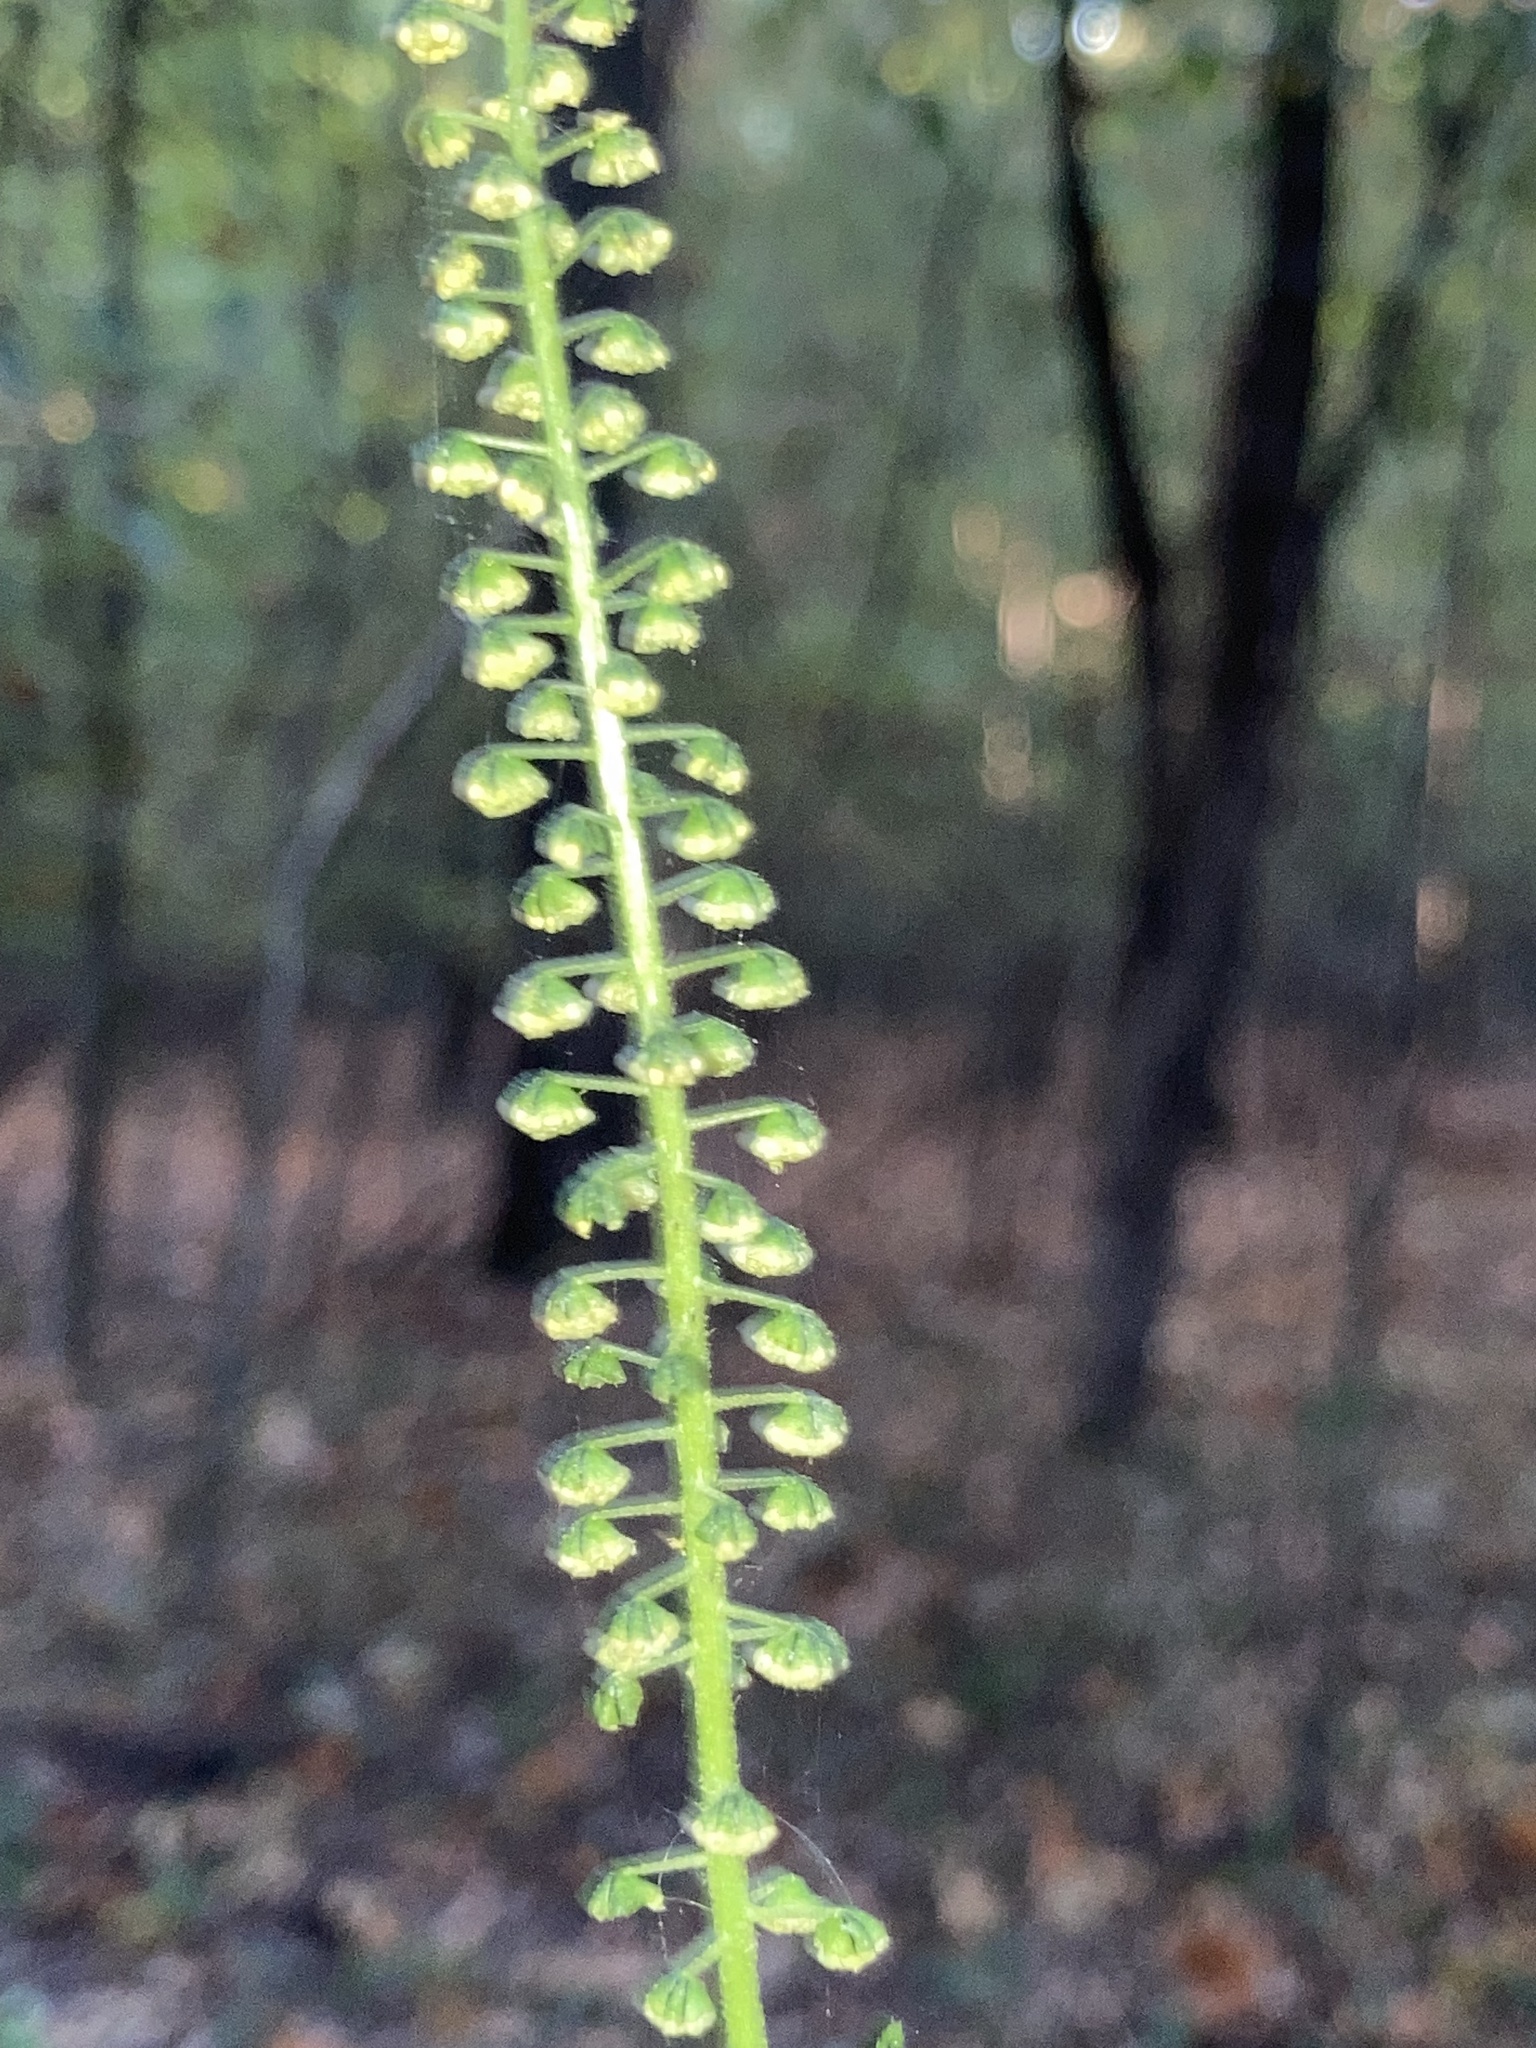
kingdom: Plantae
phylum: Tracheophyta
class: Magnoliopsida
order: Asterales
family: Asteraceae
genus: Ambrosia
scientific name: Ambrosia trifida
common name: Giant ragweed
